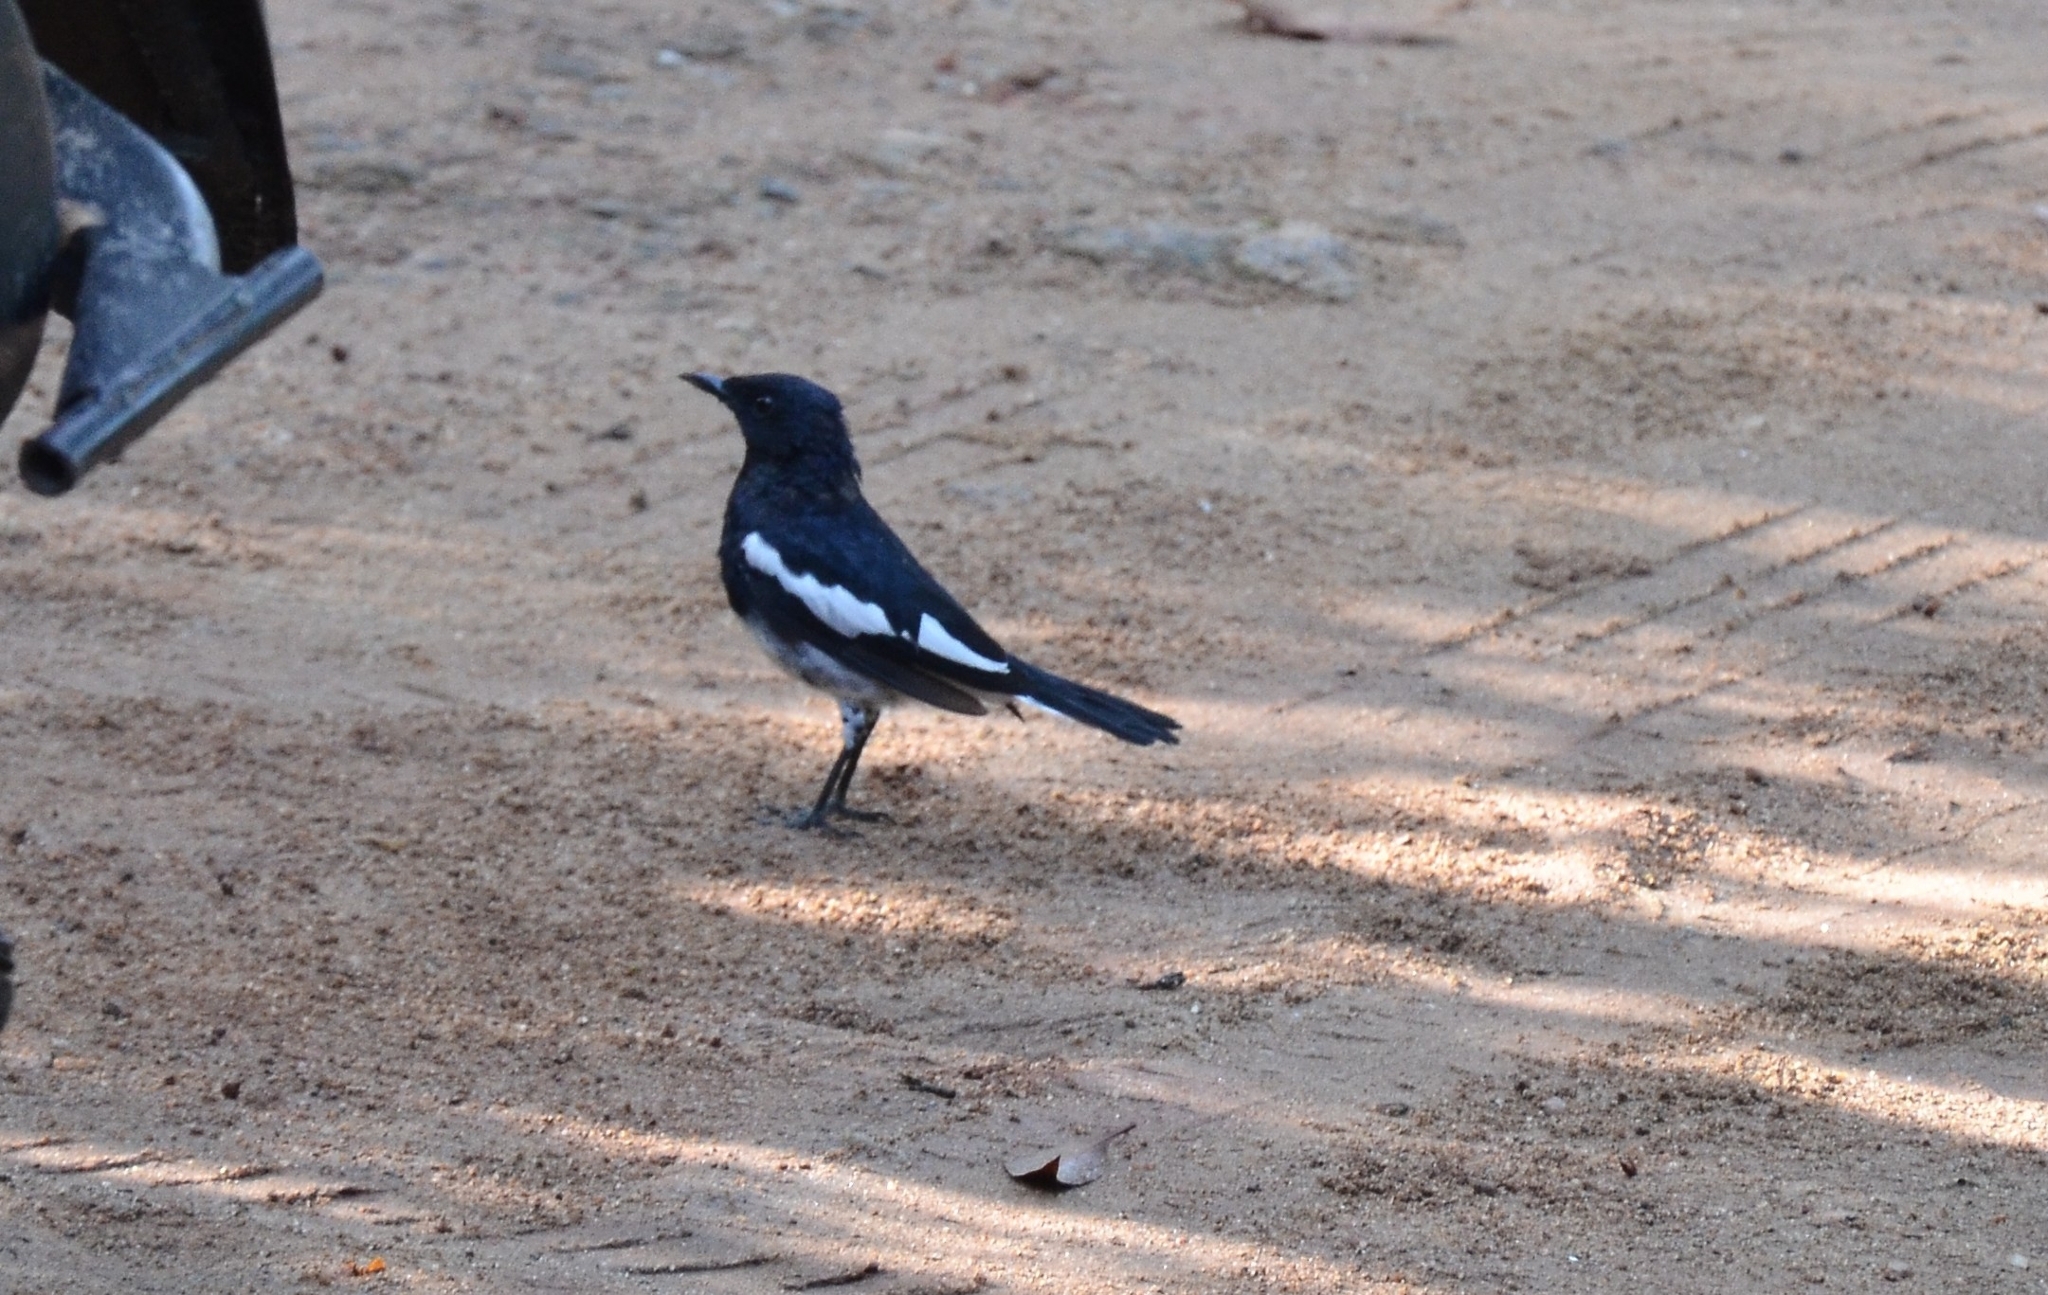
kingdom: Animalia
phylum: Chordata
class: Aves
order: Passeriformes
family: Muscicapidae
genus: Copsychus
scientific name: Copsychus saularis
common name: Oriental magpie-robin
